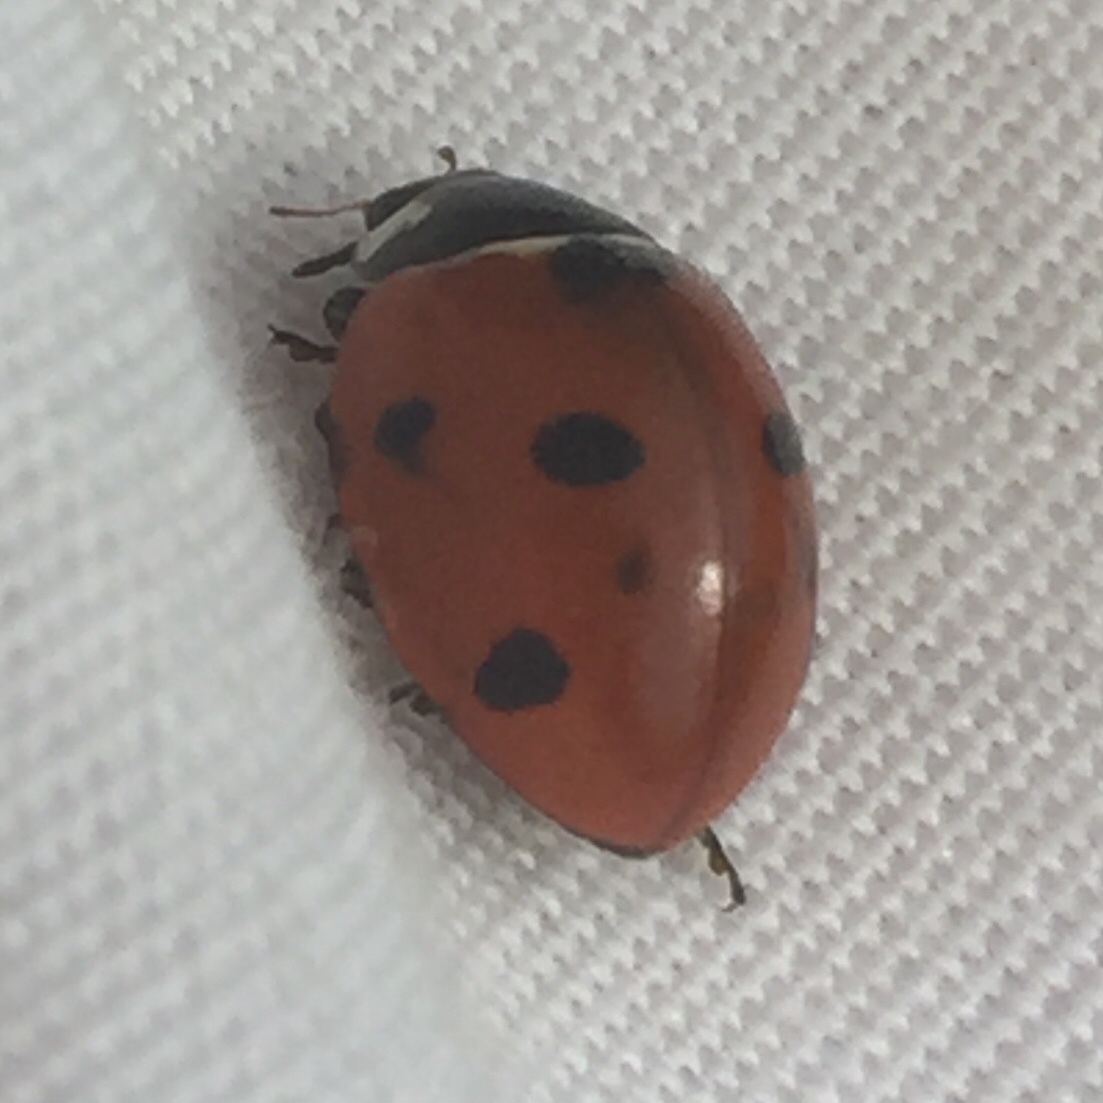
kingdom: Animalia
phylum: Arthropoda
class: Insecta
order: Coleoptera
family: Coccinellidae
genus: Coccinella
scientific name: Coccinella septempunctata
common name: Sevenspotted lady beetle
